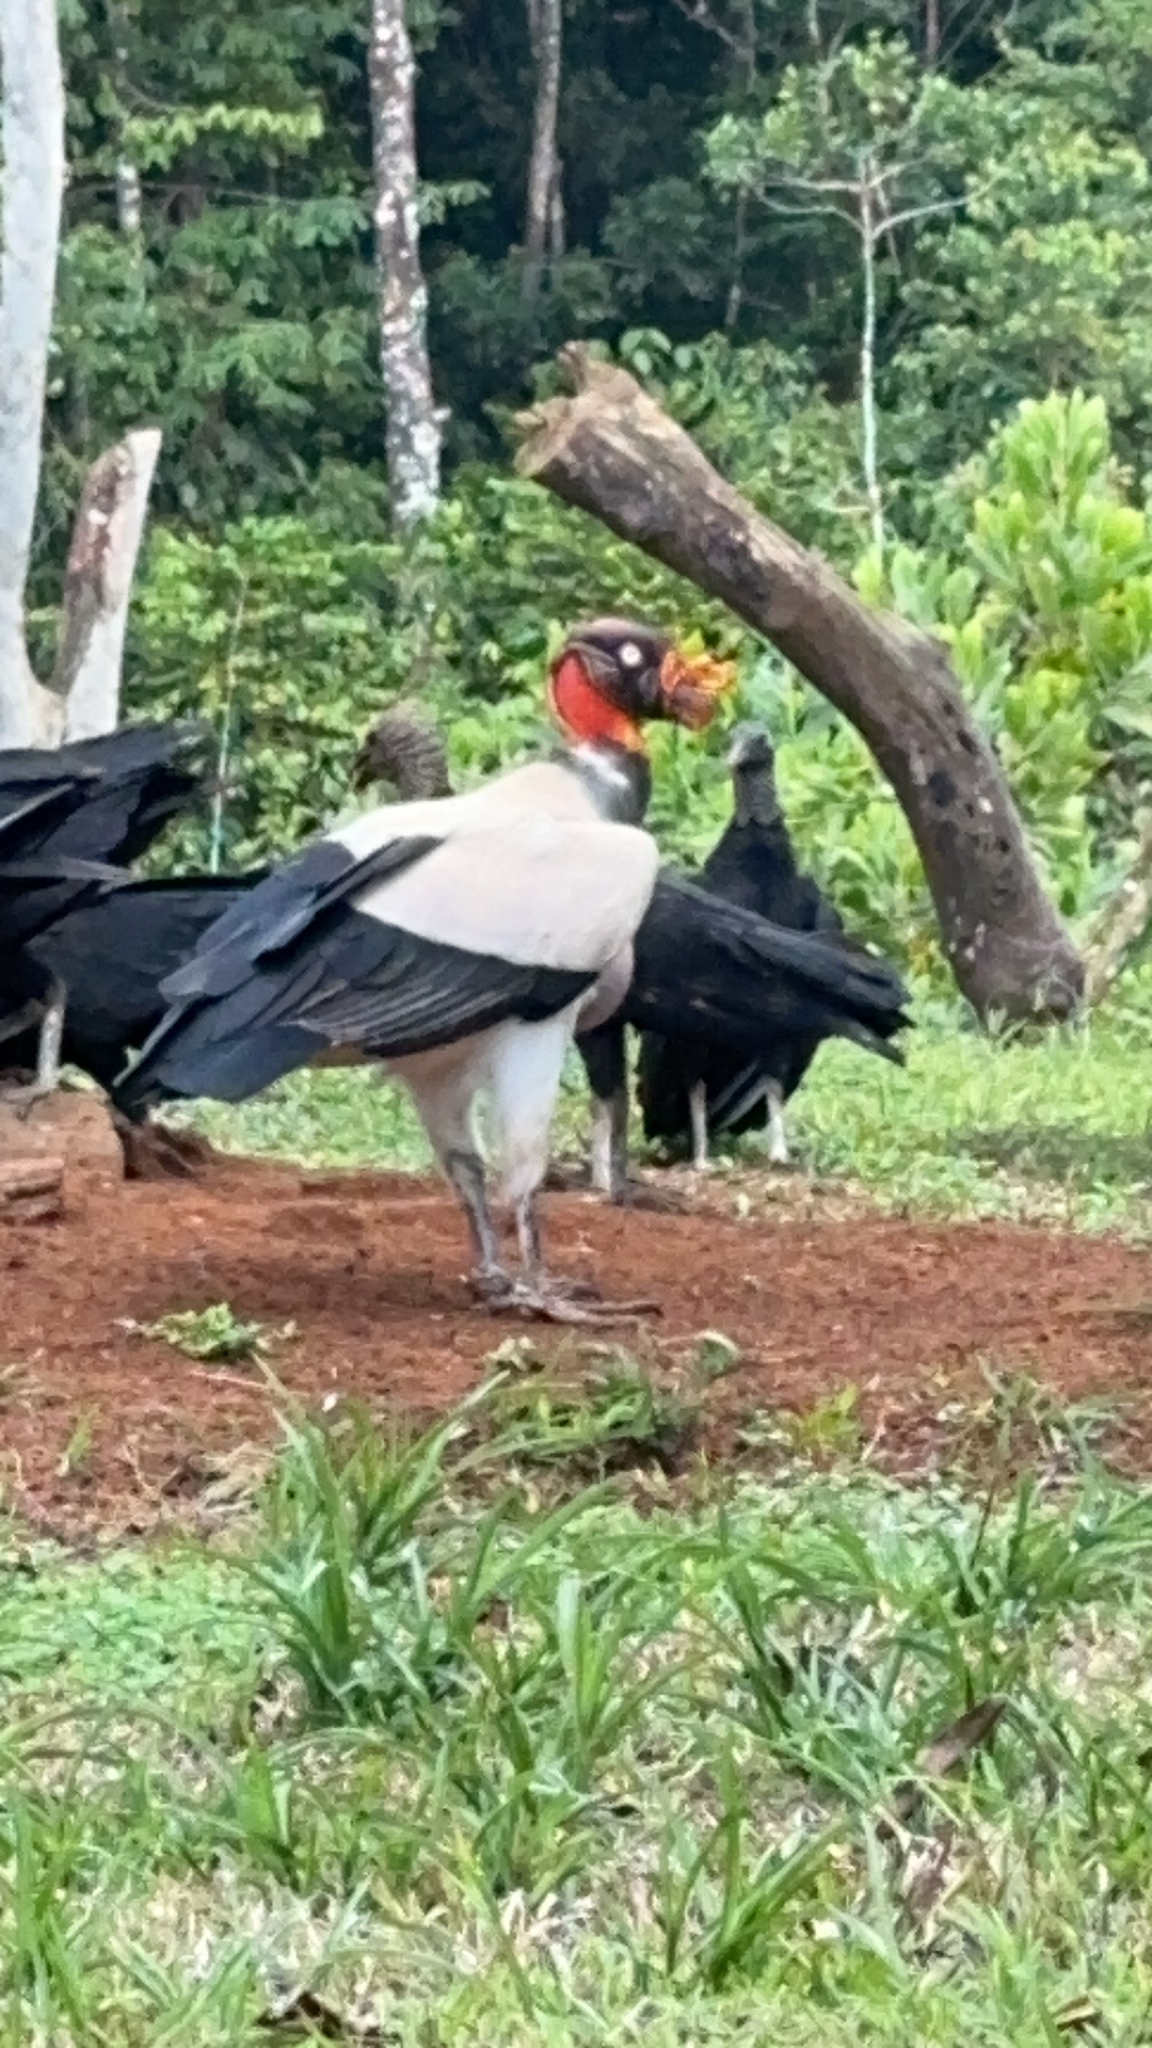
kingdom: Animalia
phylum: Chordata
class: Aves
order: Accipitriformes
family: Cathartidae
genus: Sarcoramphus
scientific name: Sarcoramphus papa
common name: King vulture
